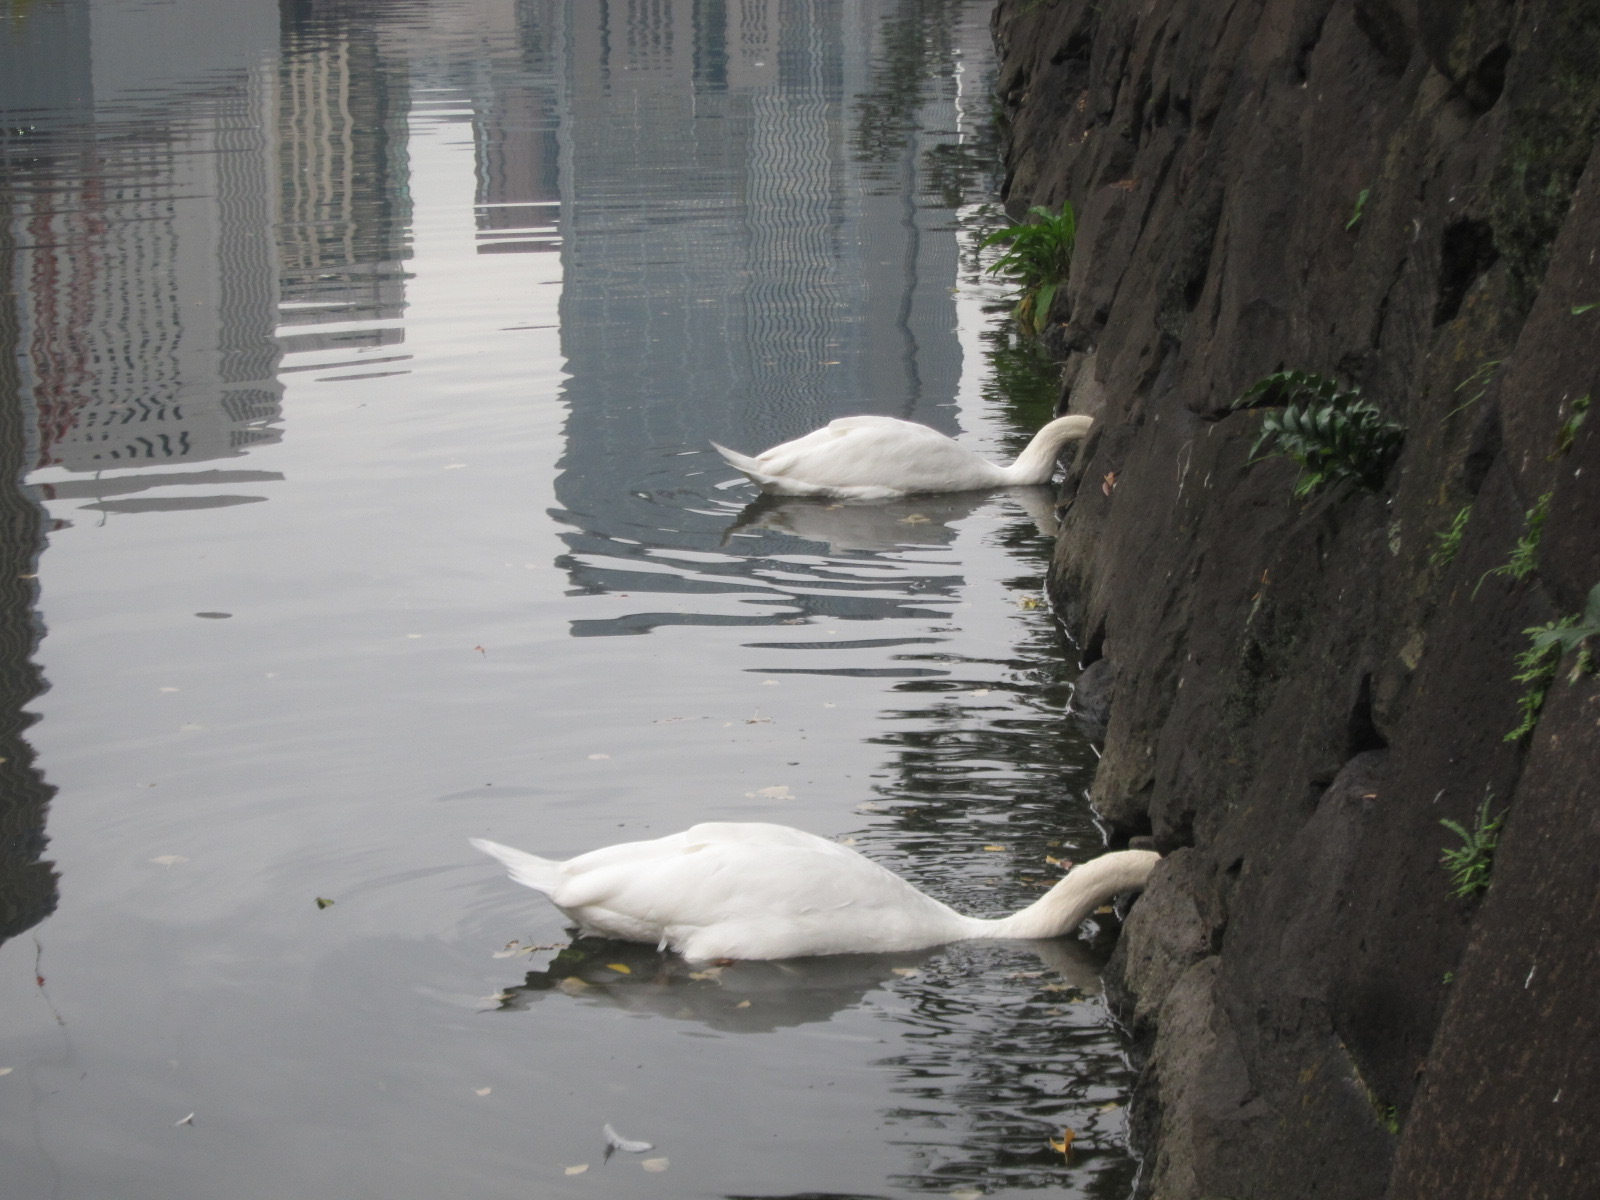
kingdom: Animalia
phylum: Chordata
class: Aves
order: Anseriformes
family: Anatidae
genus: Cygnus
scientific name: Cygnus olor
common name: Mute swan
